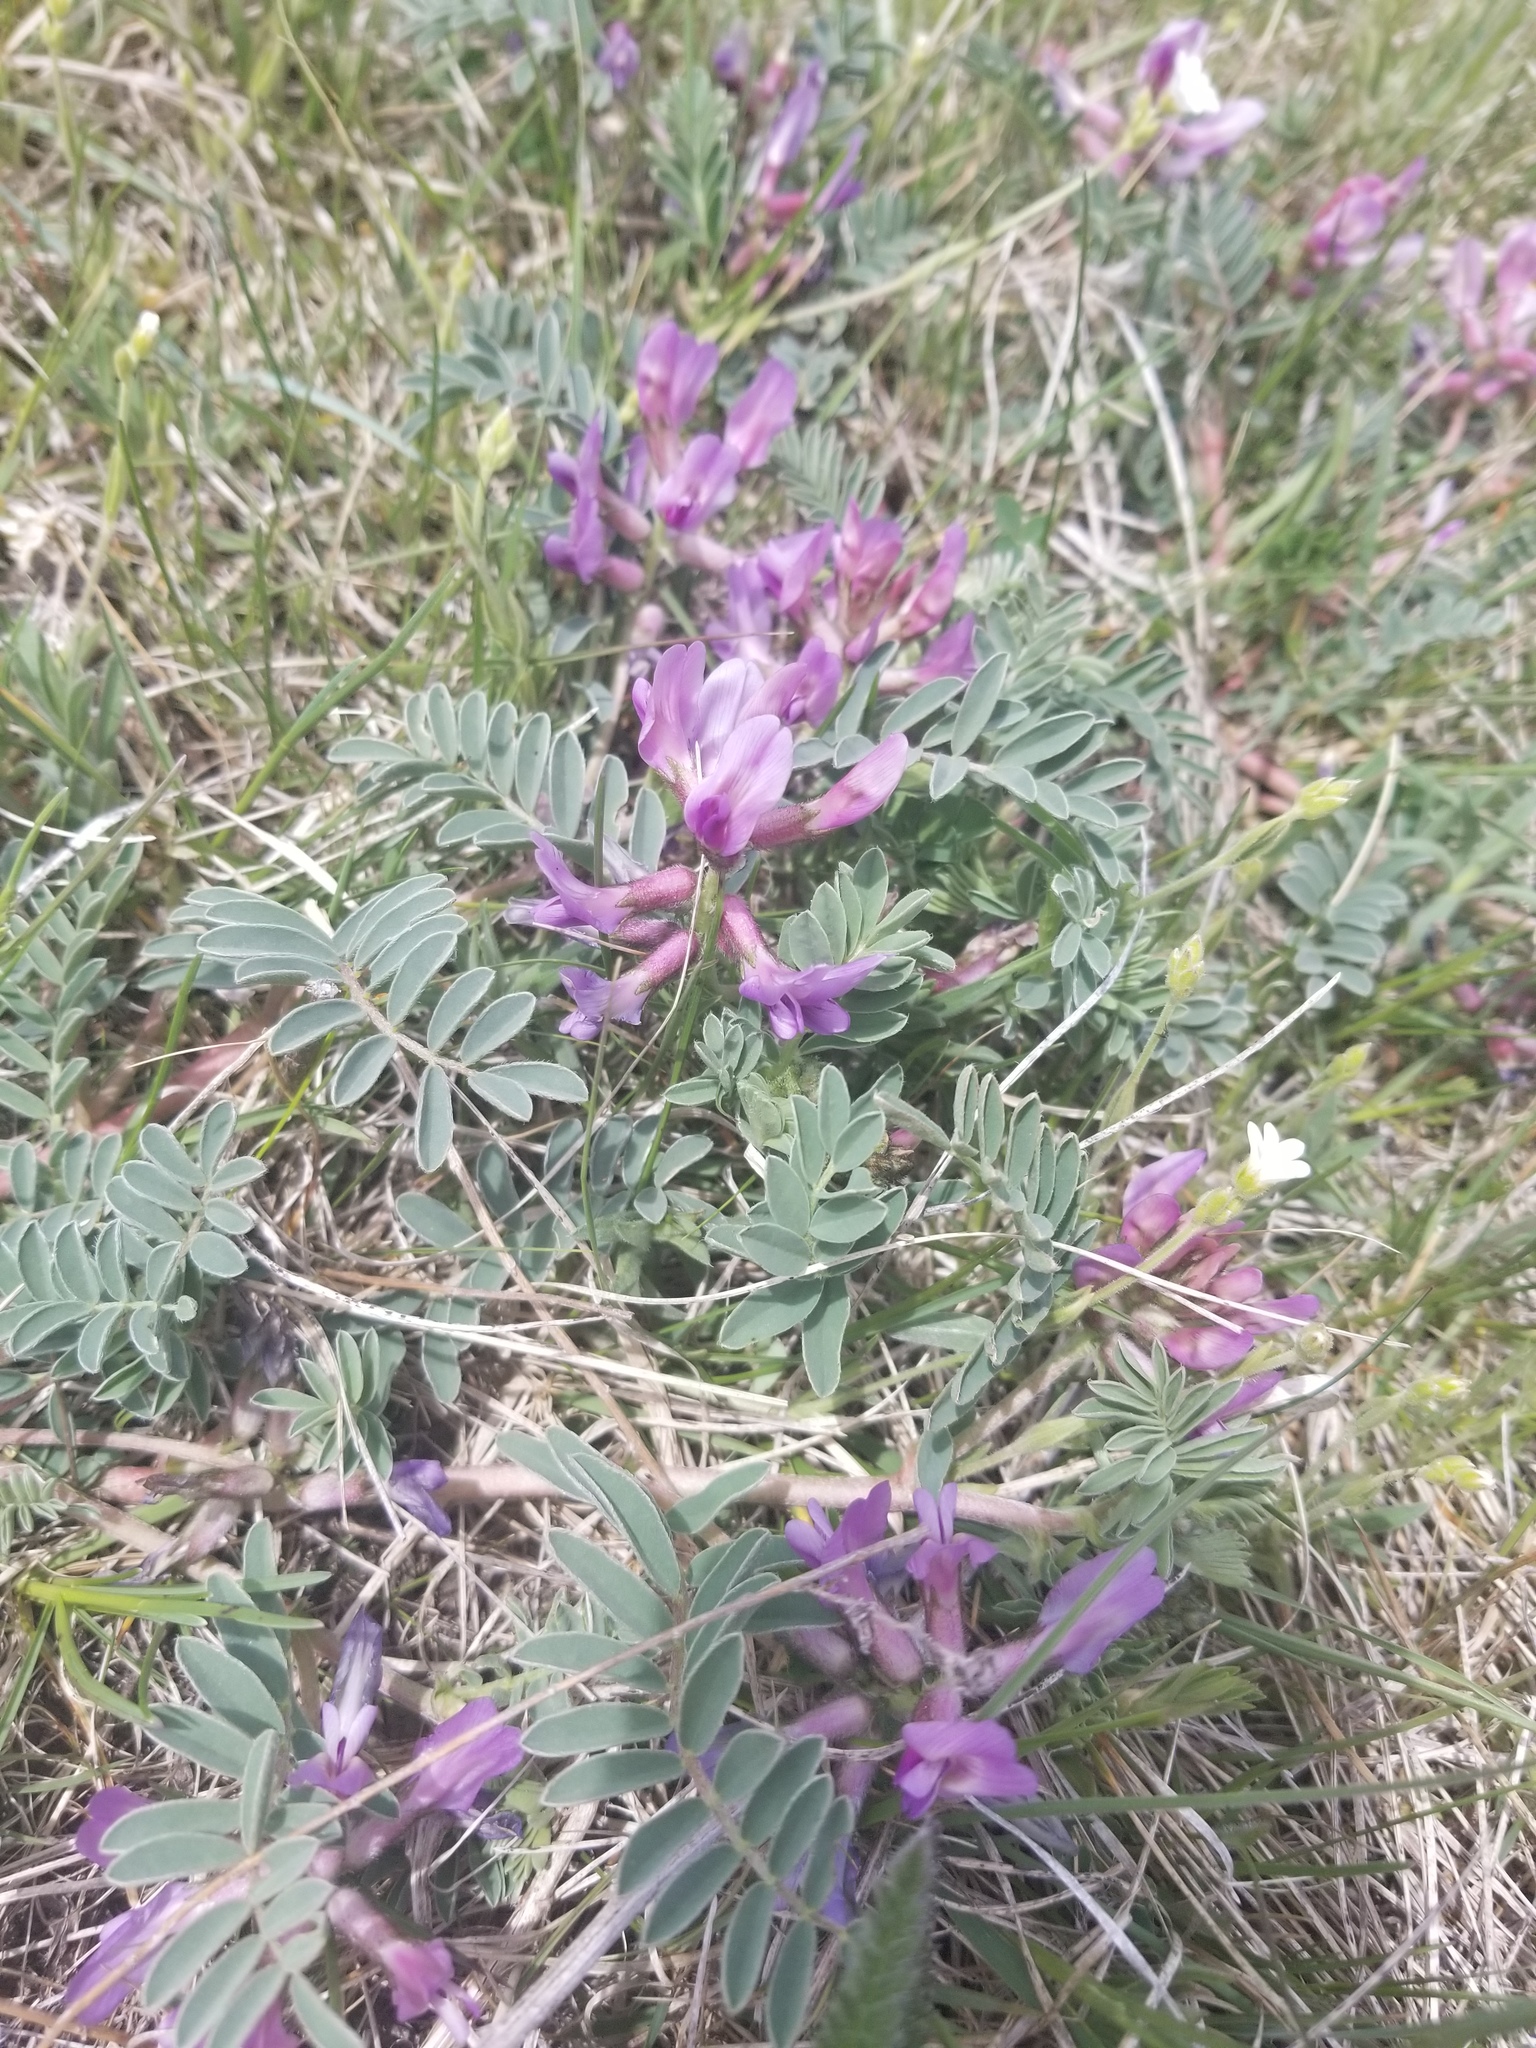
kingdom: Plantae
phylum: Tracheophyta
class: Magnoliopsida
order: Fabales
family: Fabaceae
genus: Astragalus
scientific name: Astragalus crassicarpus
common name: Ground-plum milk-vetch
